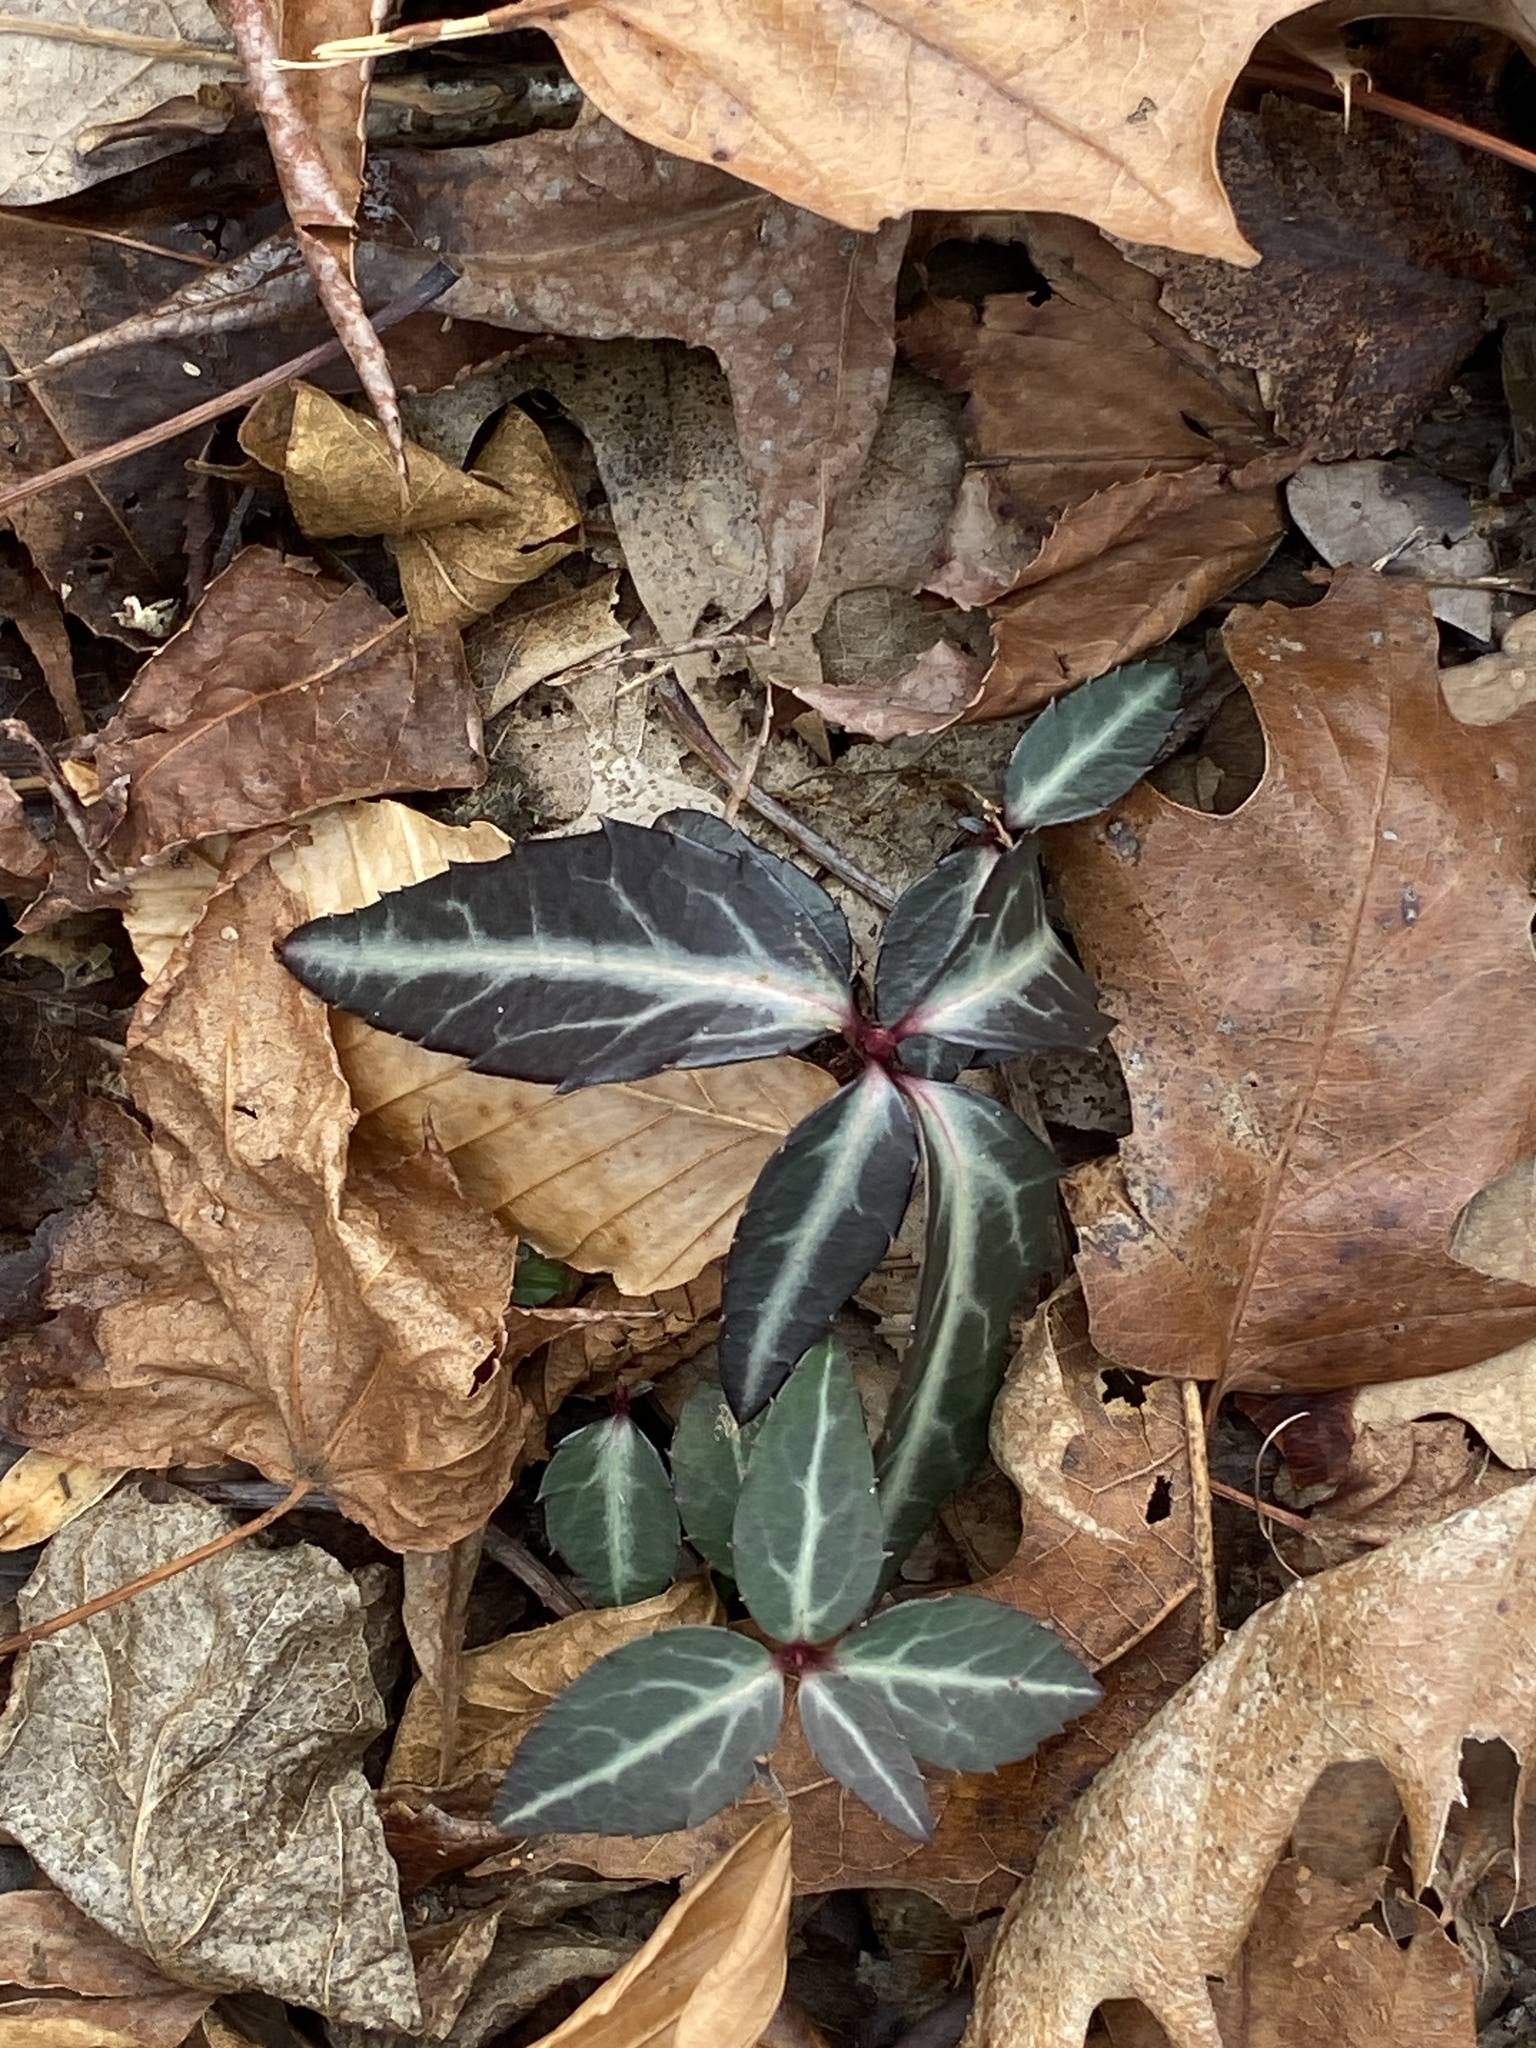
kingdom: Plantae
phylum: Tracheophyta
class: Magnoliopsida
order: Ericales
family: Ericaceae
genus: Chimaphila
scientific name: Chimaphila maculata
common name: Spotted pipsissewa
